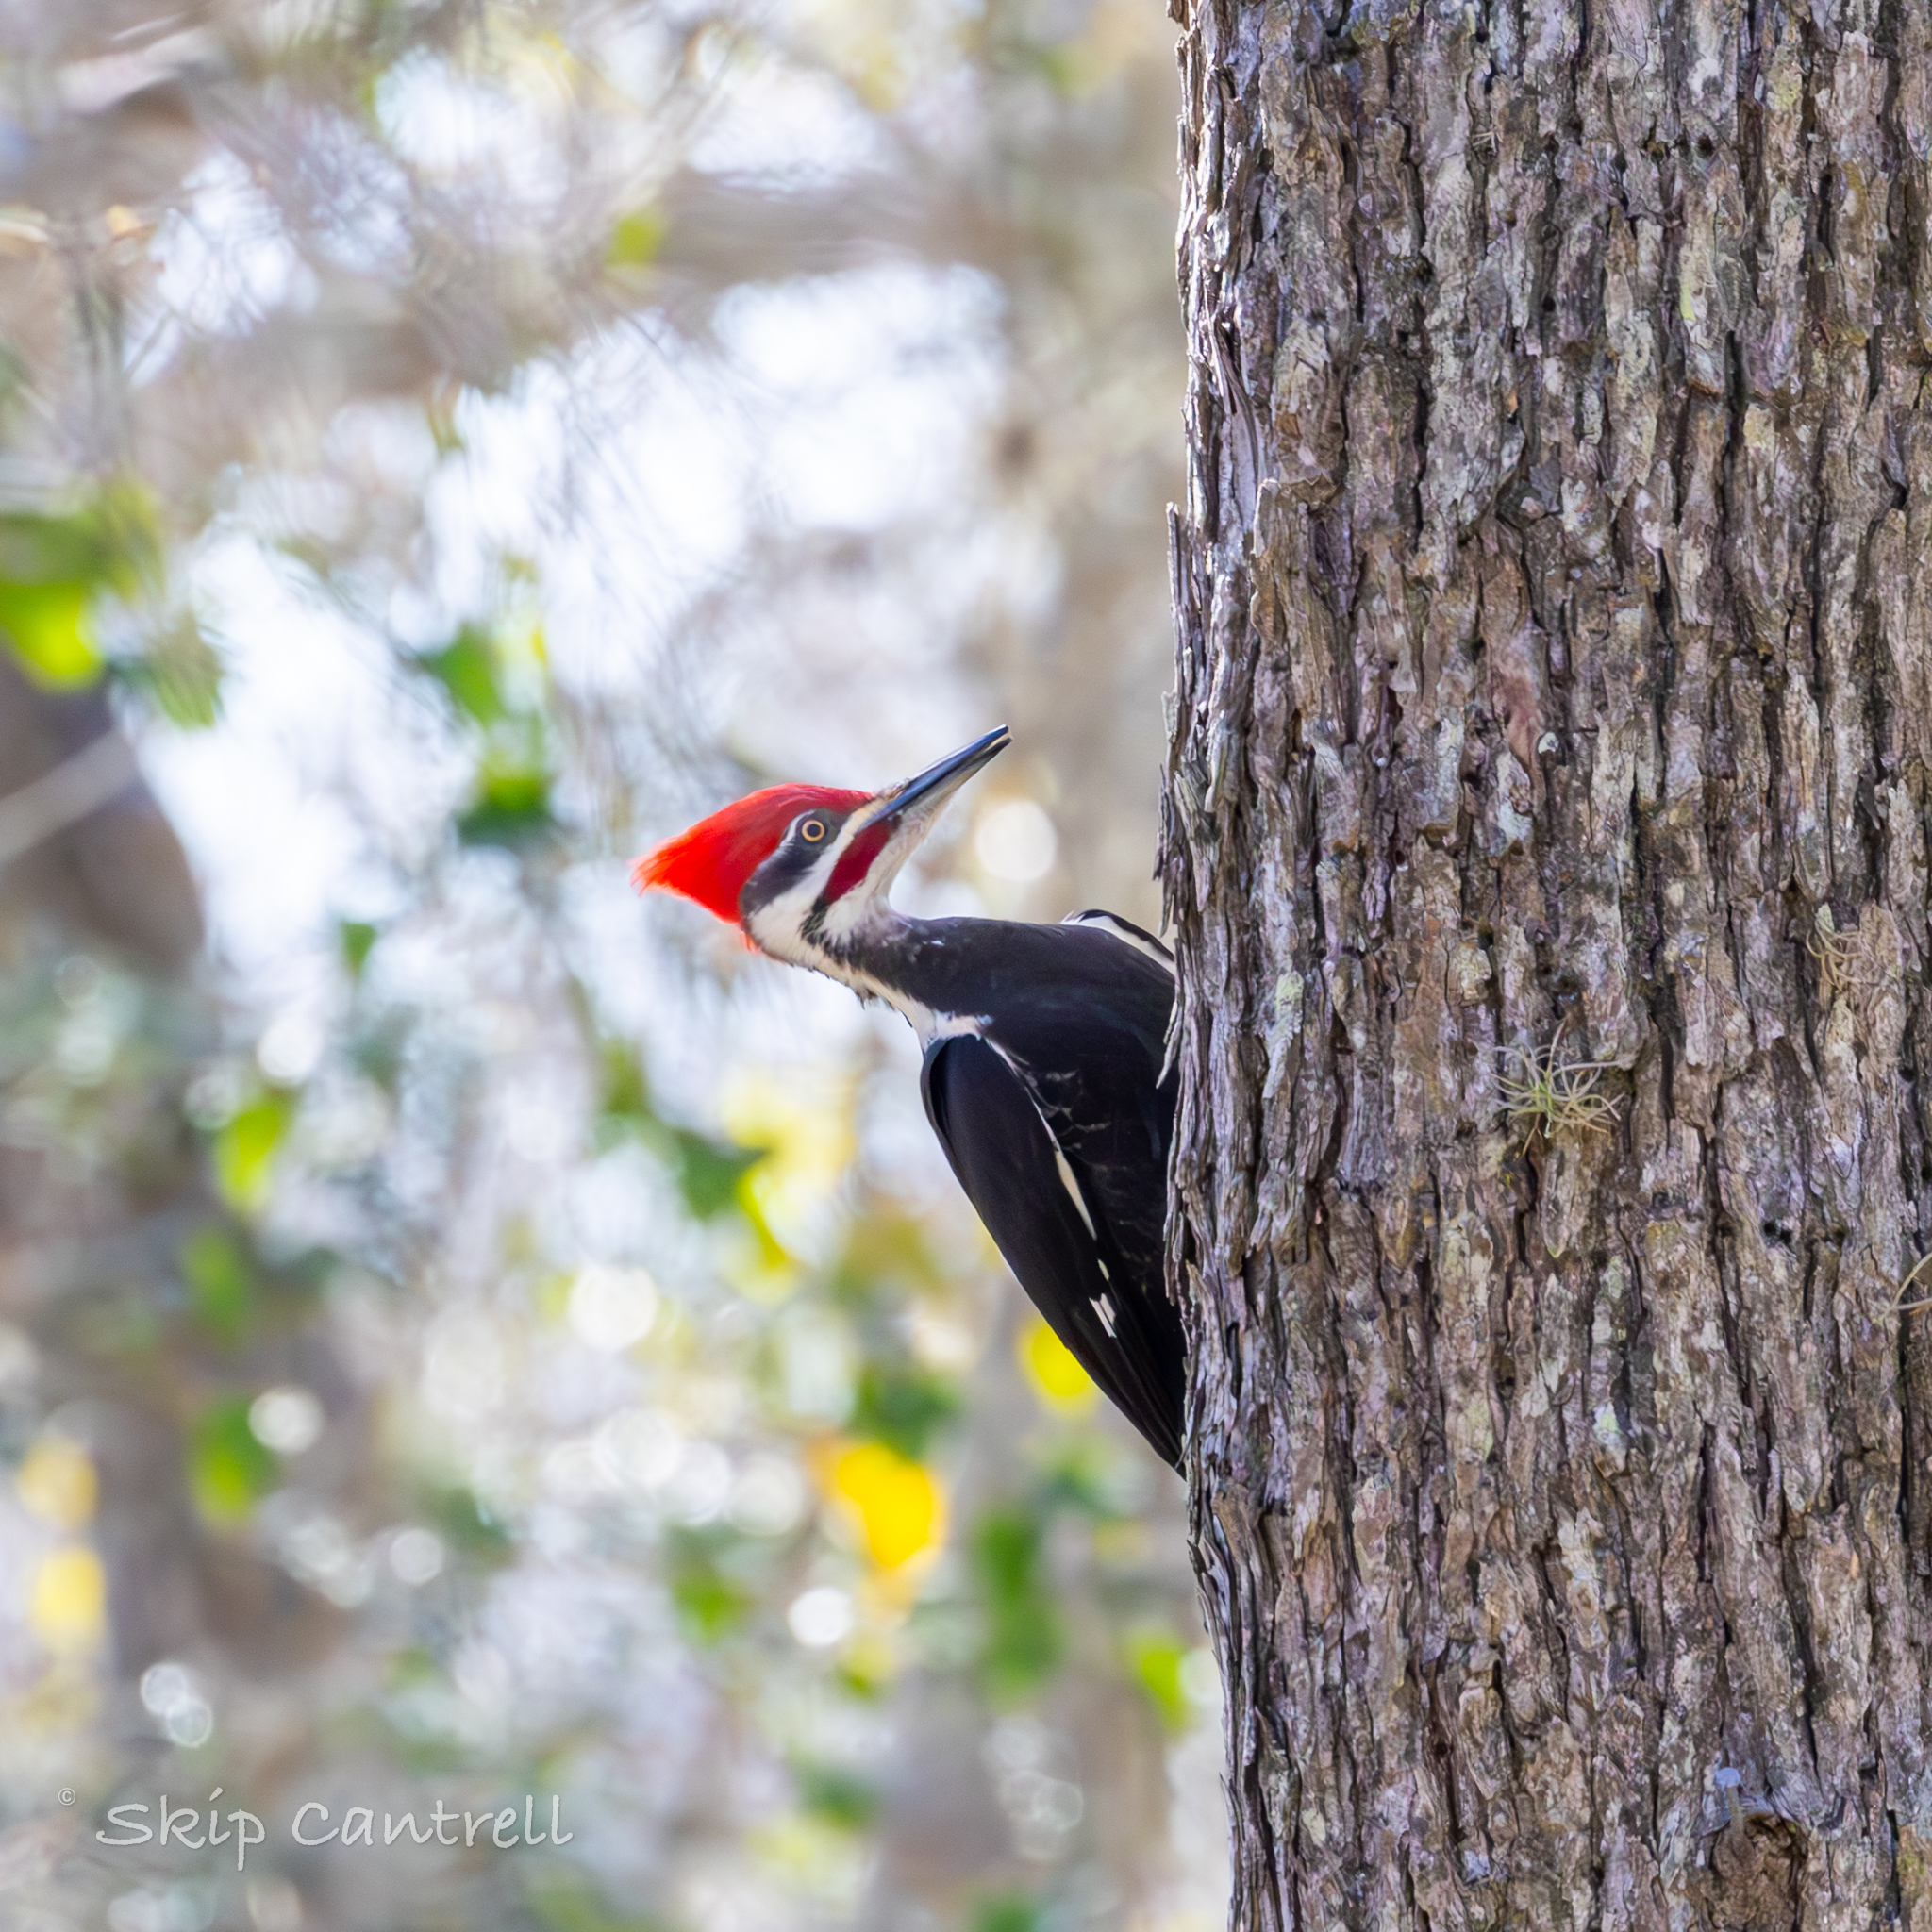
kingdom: Animalia
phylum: Chordata
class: Aves
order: Piciformes
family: Picidae
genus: Dryocopus
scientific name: Dryocopus pileatus
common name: Pileated woodpecker
